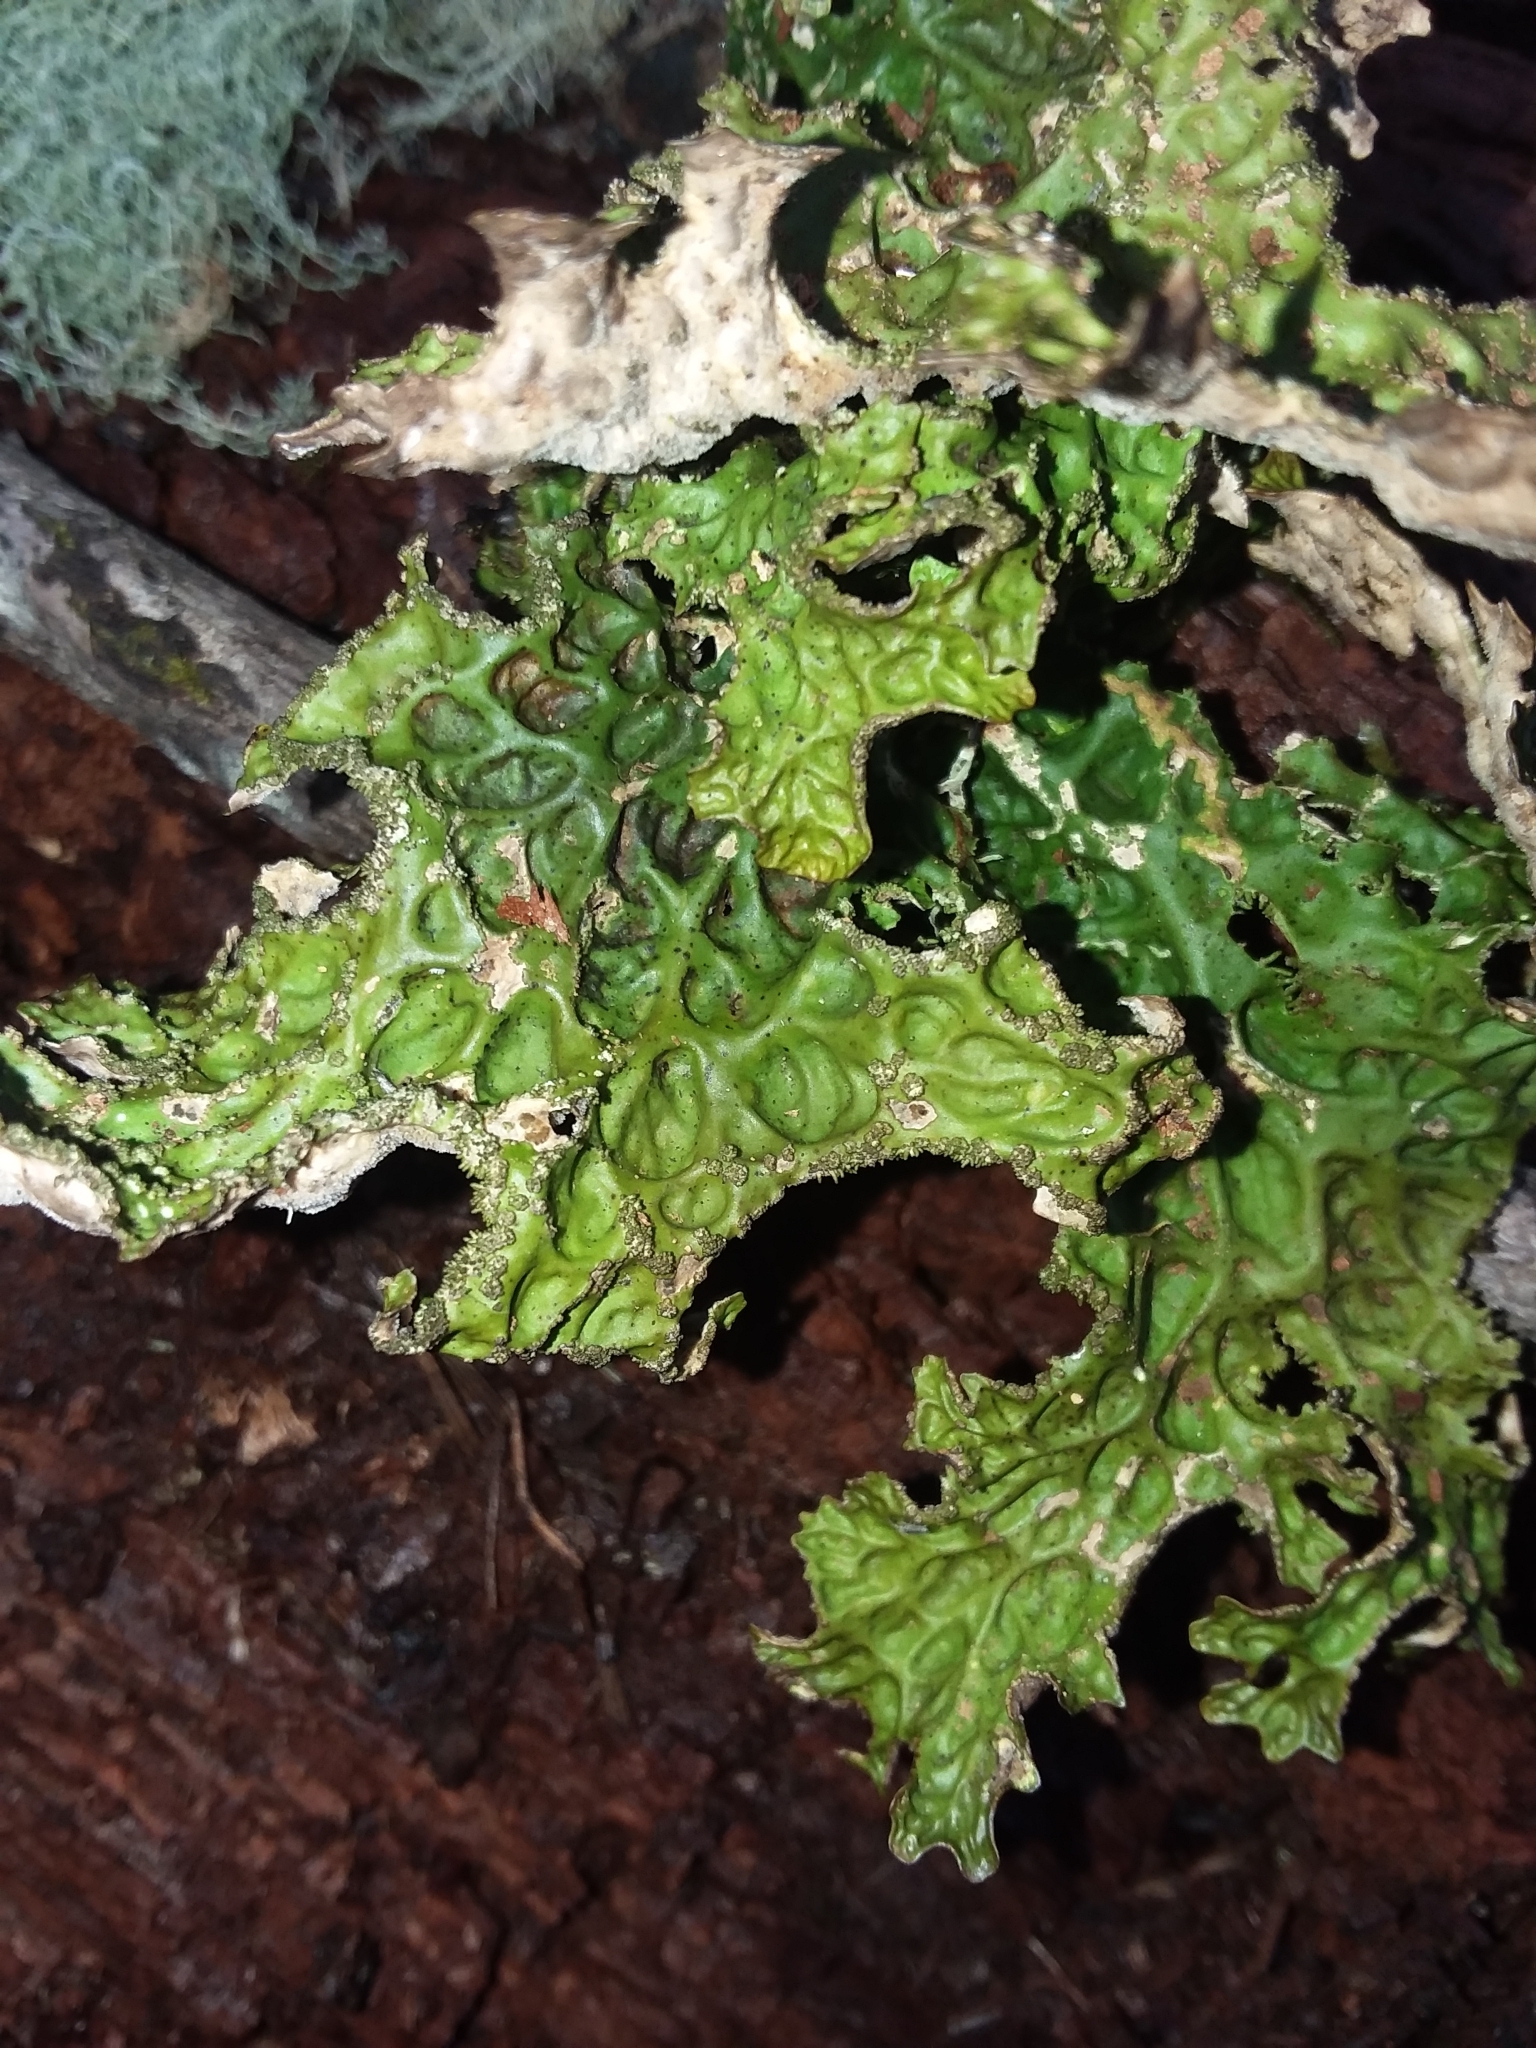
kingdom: Fungi
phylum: Ascomycota
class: Lecanoromycetes
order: Peltigerales
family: Lobariaceae
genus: Lobaria
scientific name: Lobaria pulmonaria
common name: Lungwort
